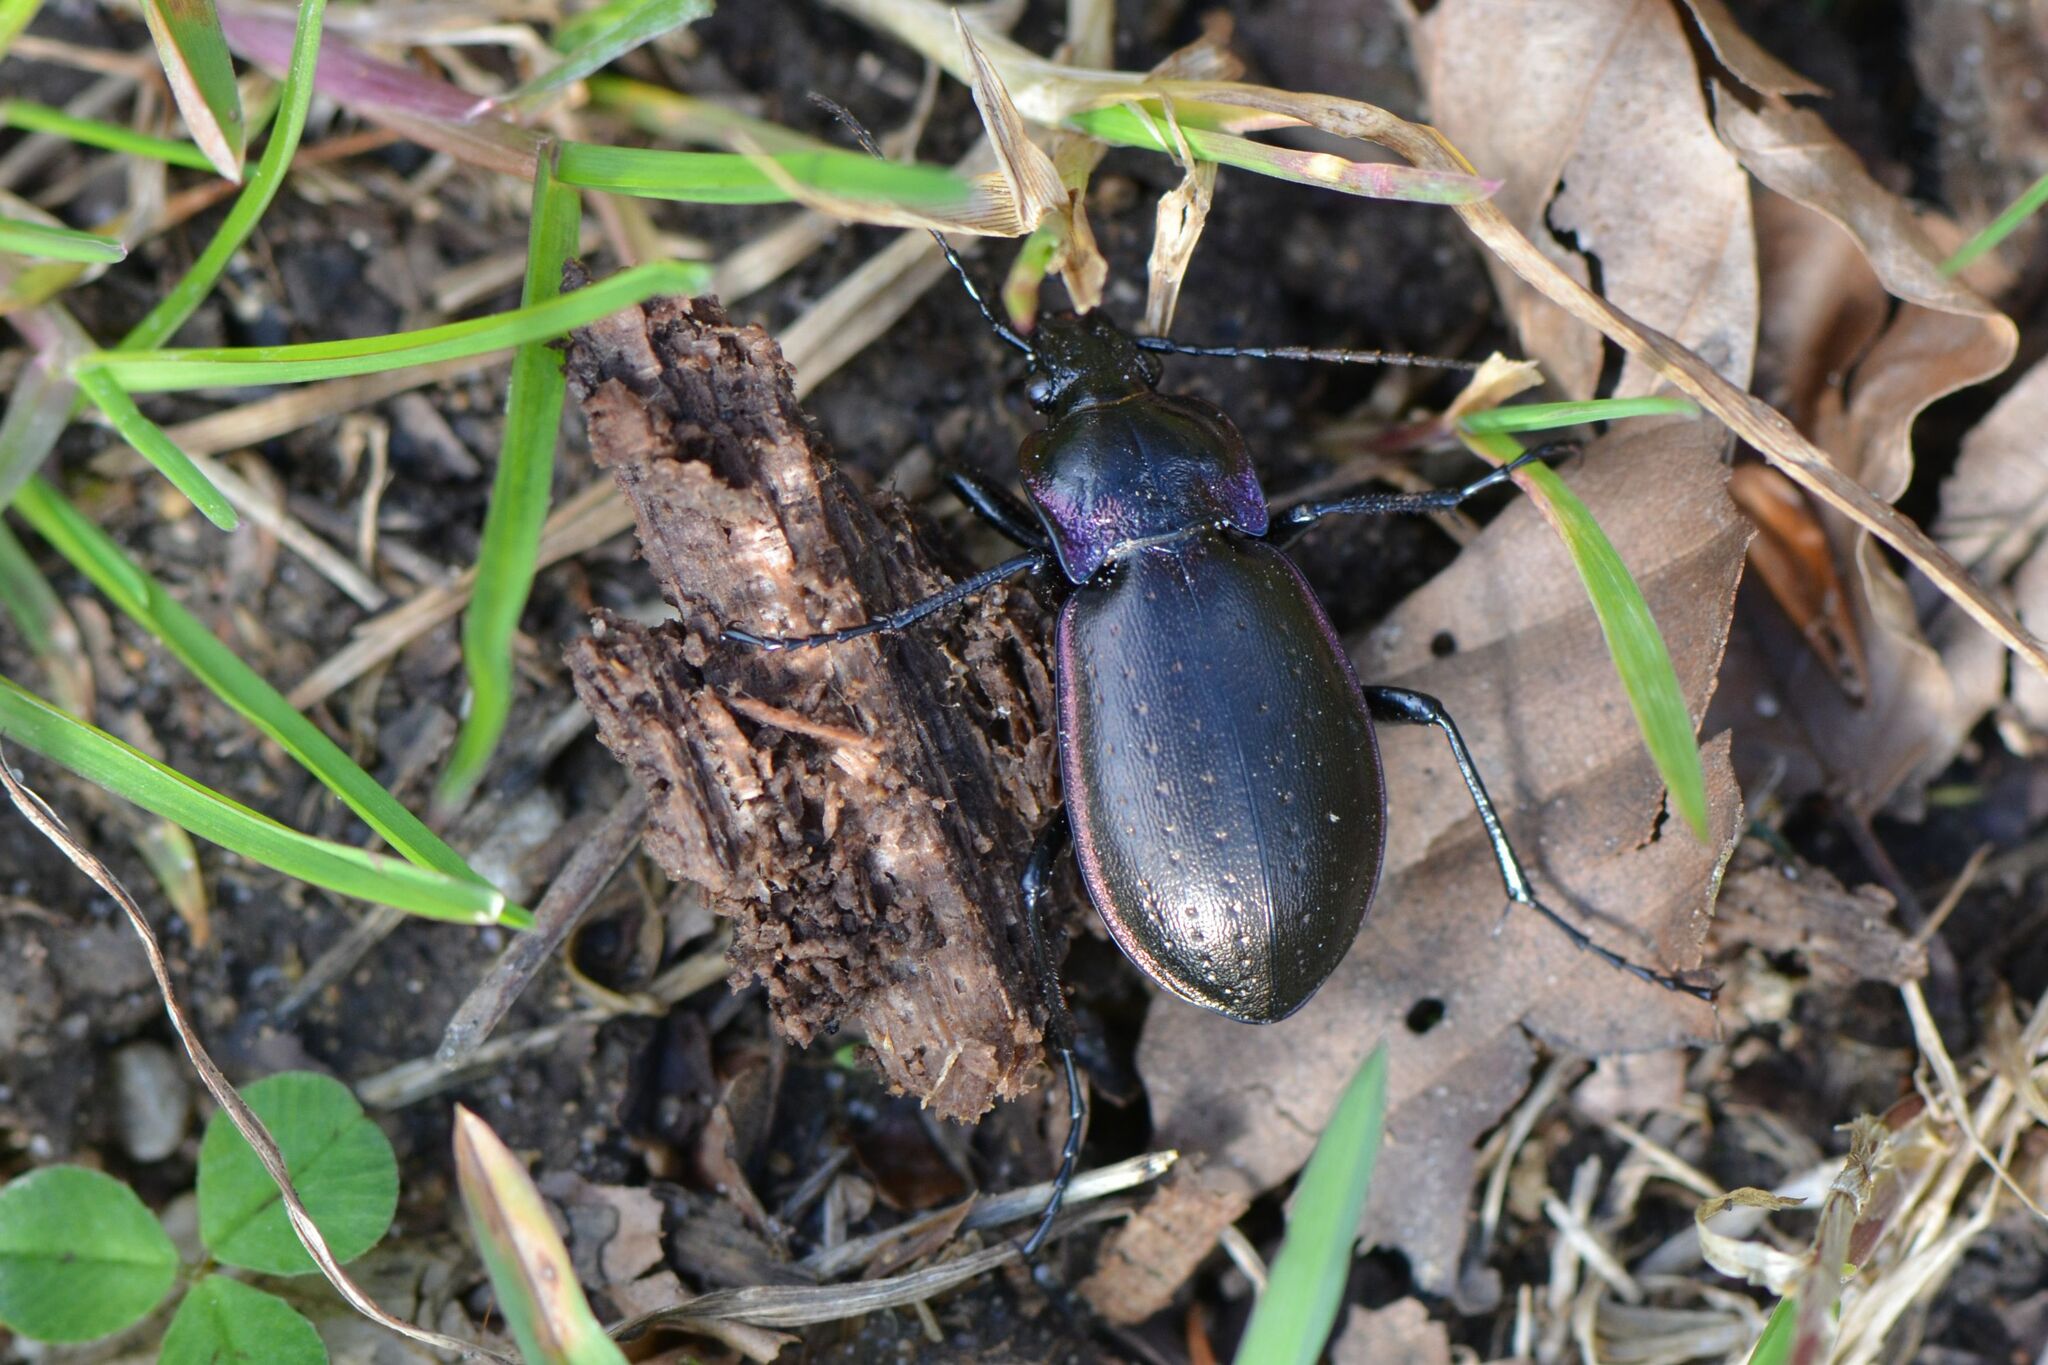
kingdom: Animalia
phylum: Arthropoda
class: Insecta
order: Coleoptera
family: Carabidae
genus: Carabus
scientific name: Carabus nemoralis
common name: European ground beetle
